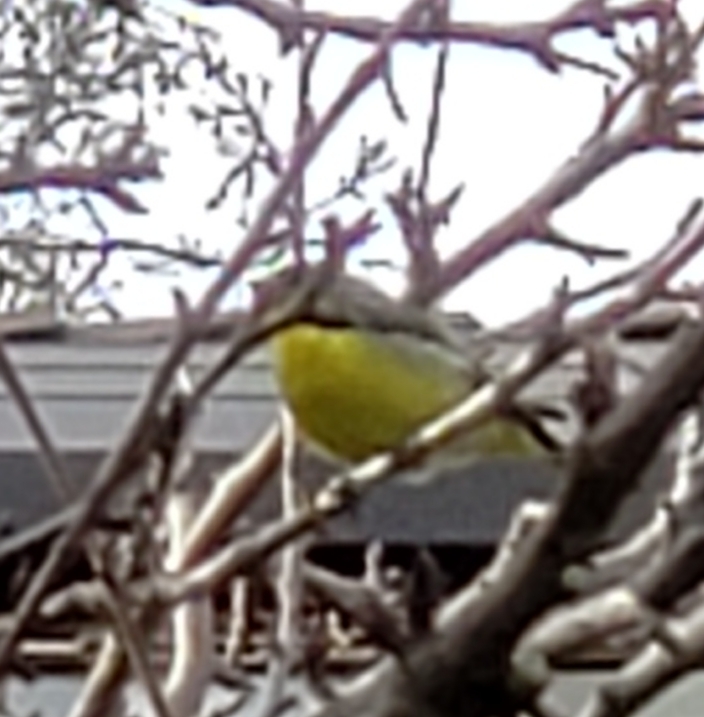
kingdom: Animalia
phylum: Chordata
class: Aves
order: Passeriformes
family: Fringillidae
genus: Spinus
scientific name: Spinus psaltria
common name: Lesser goldfinch
